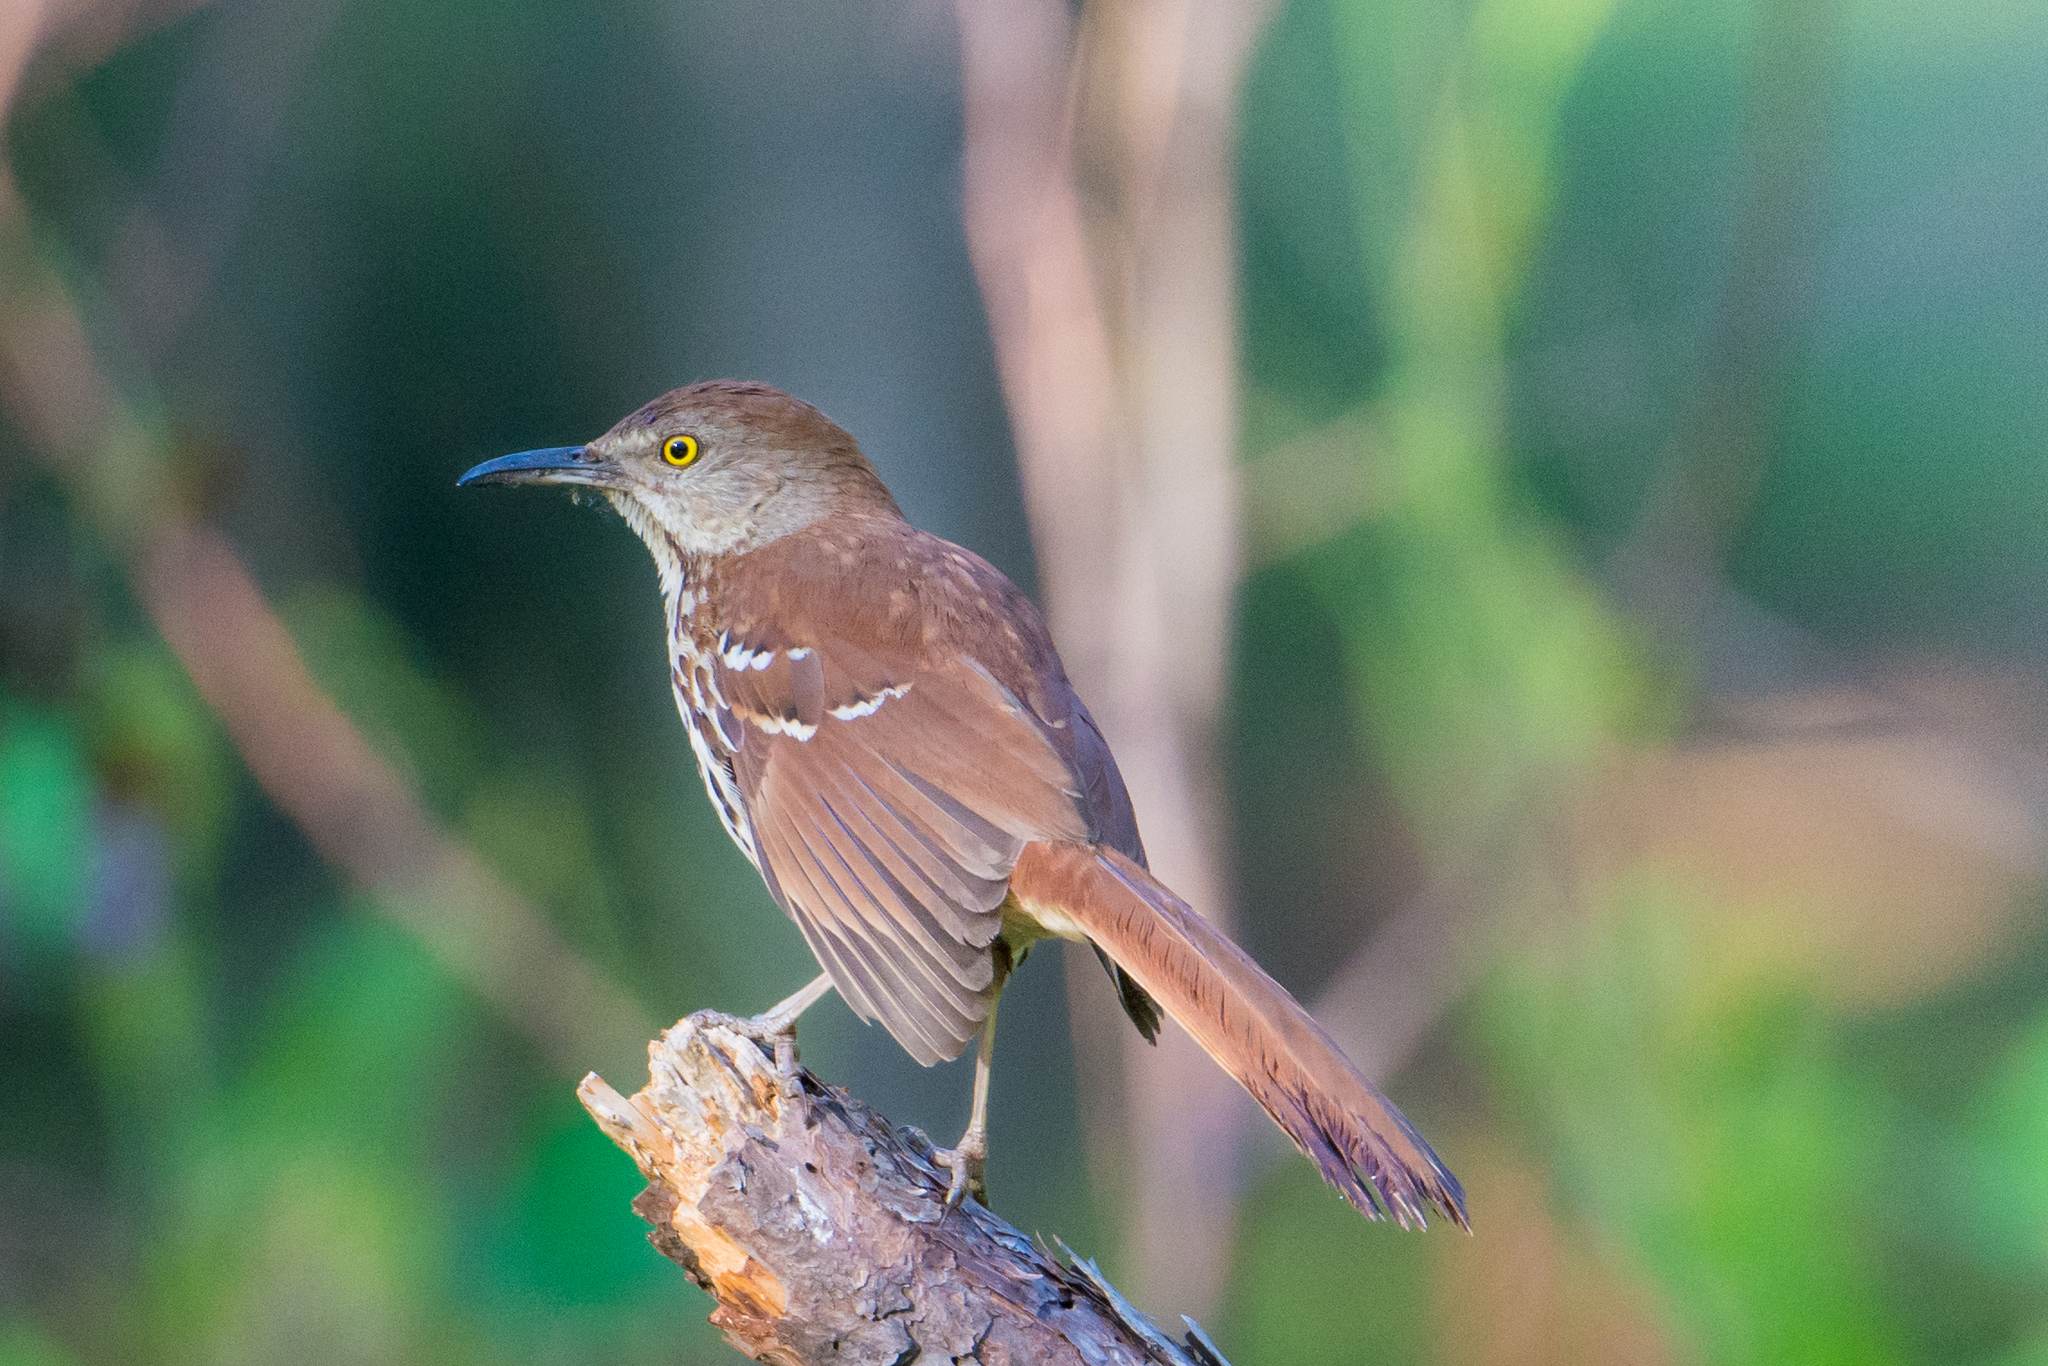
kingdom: Animalia
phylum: Chordata
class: Aves
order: Passeriformes
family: Mimidae
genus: Toxostoma
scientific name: Toxostoma rufum
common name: Brown thrasher
